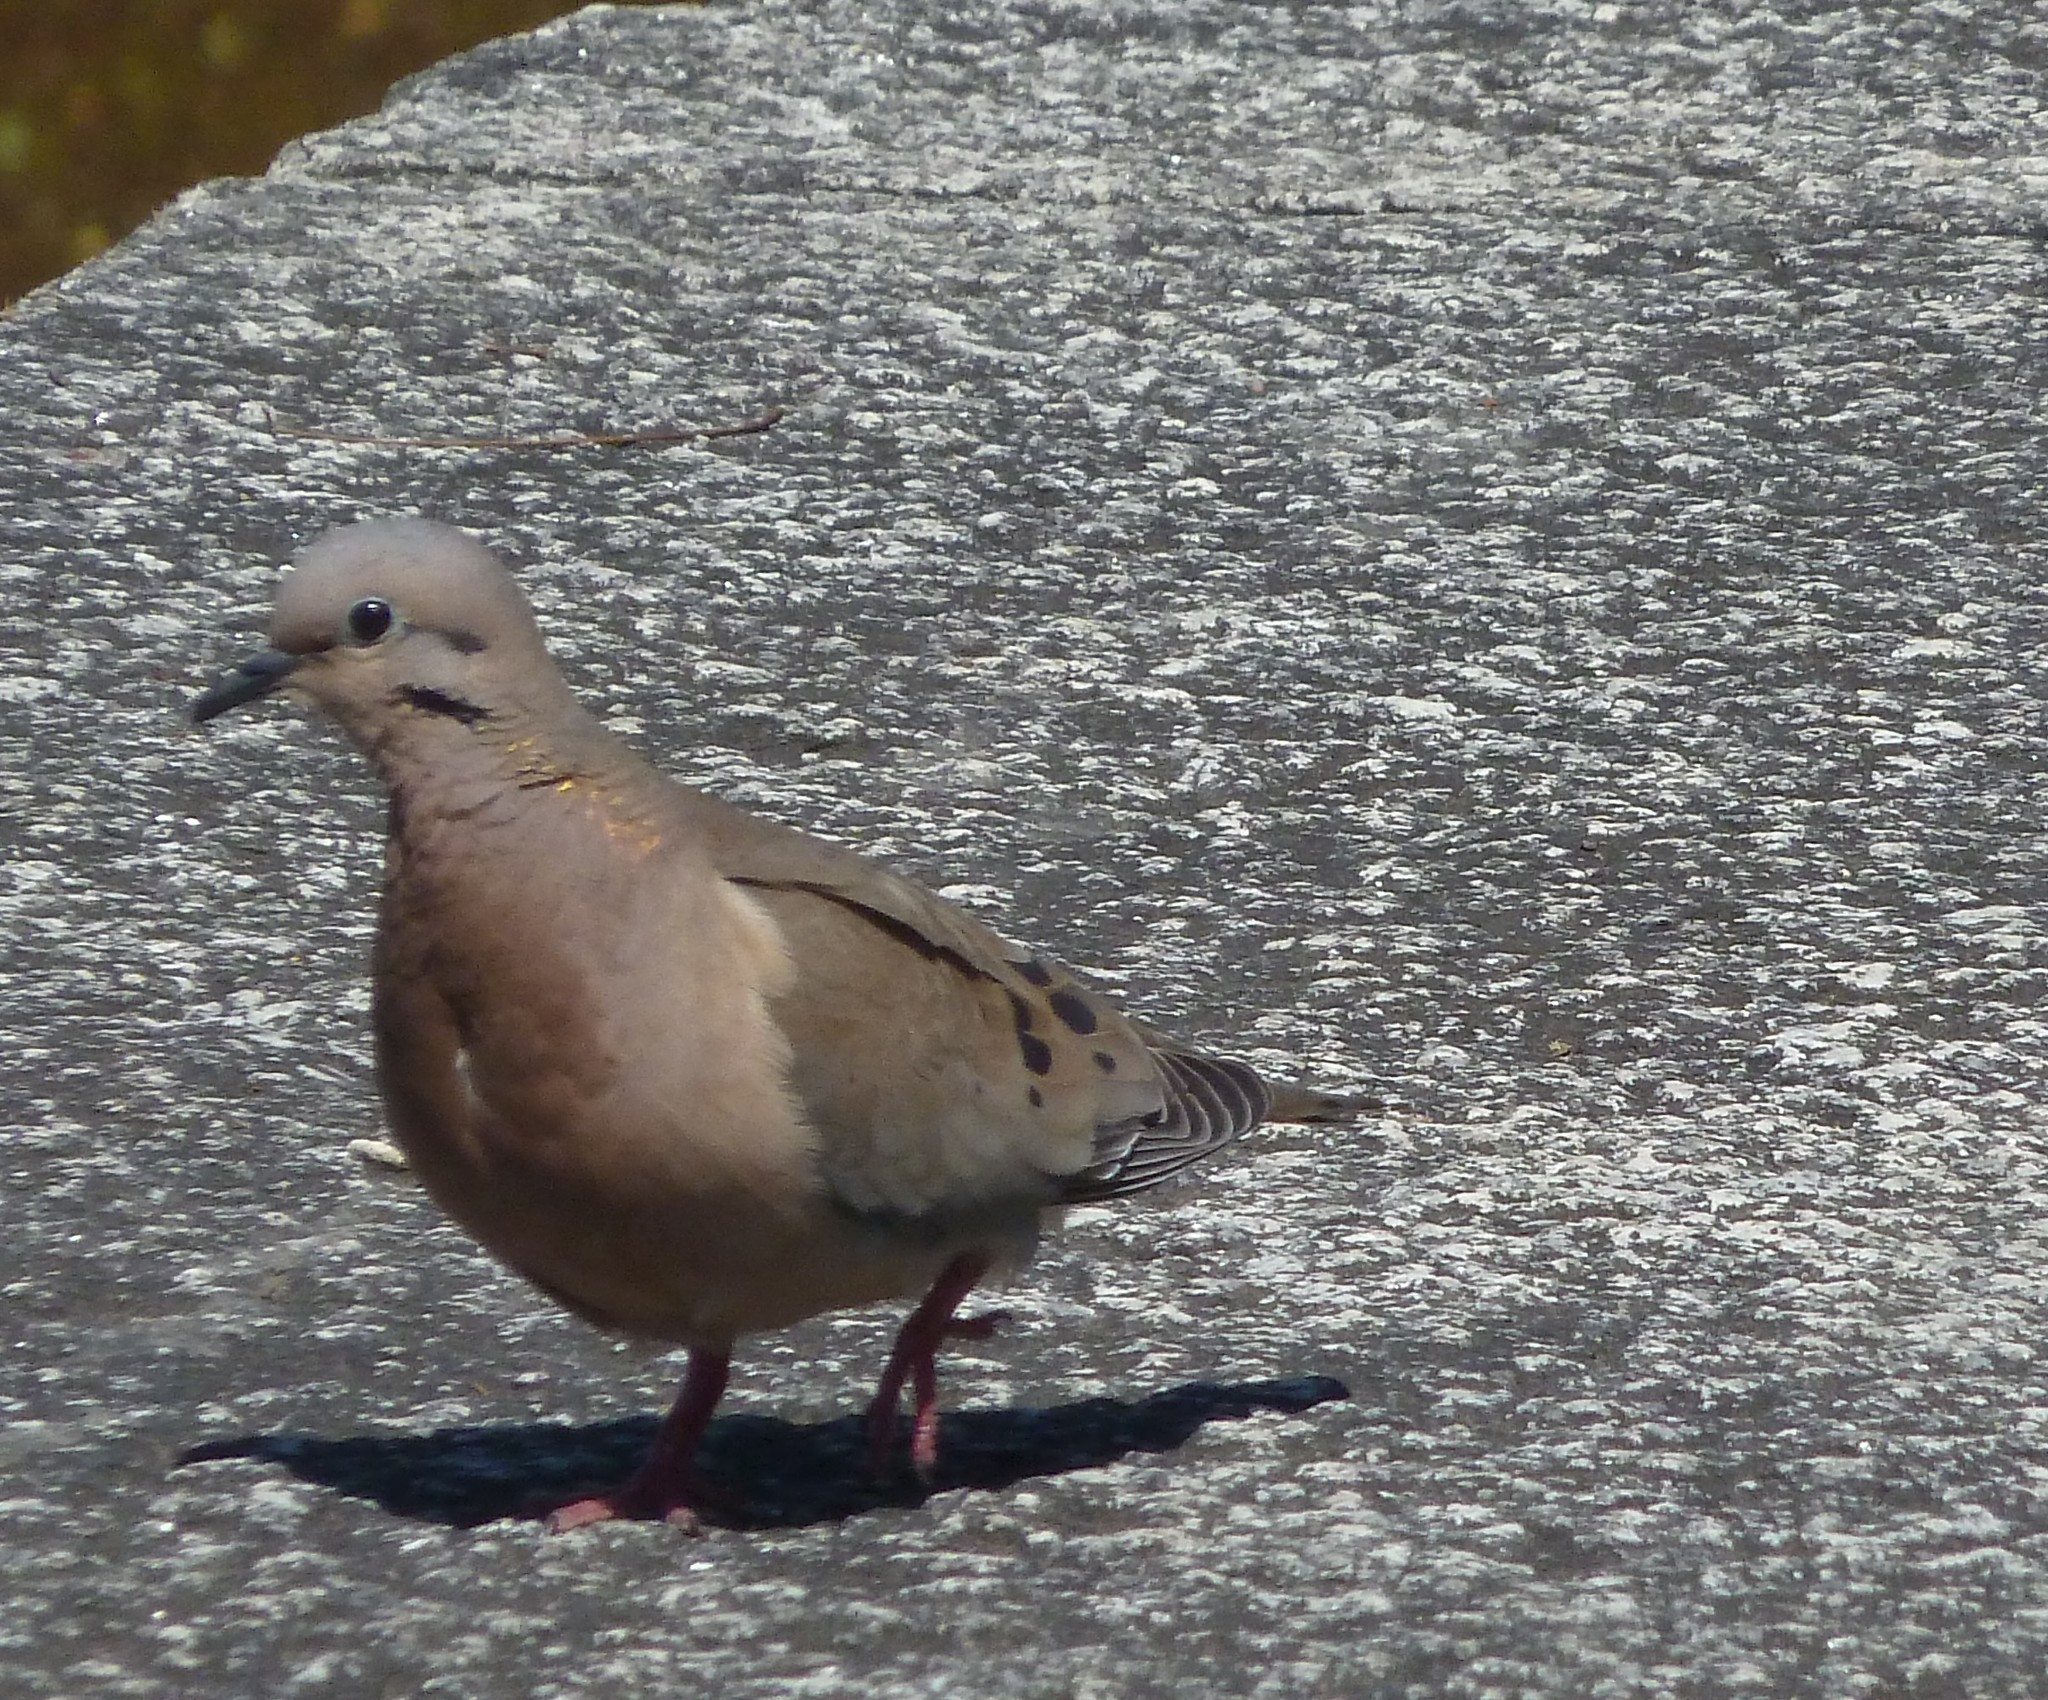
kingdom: Animalia
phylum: Chordata
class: Aves
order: Columbiformes
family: Columbidae
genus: Zenaida
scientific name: Zenaida auriculata
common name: Eared dove
